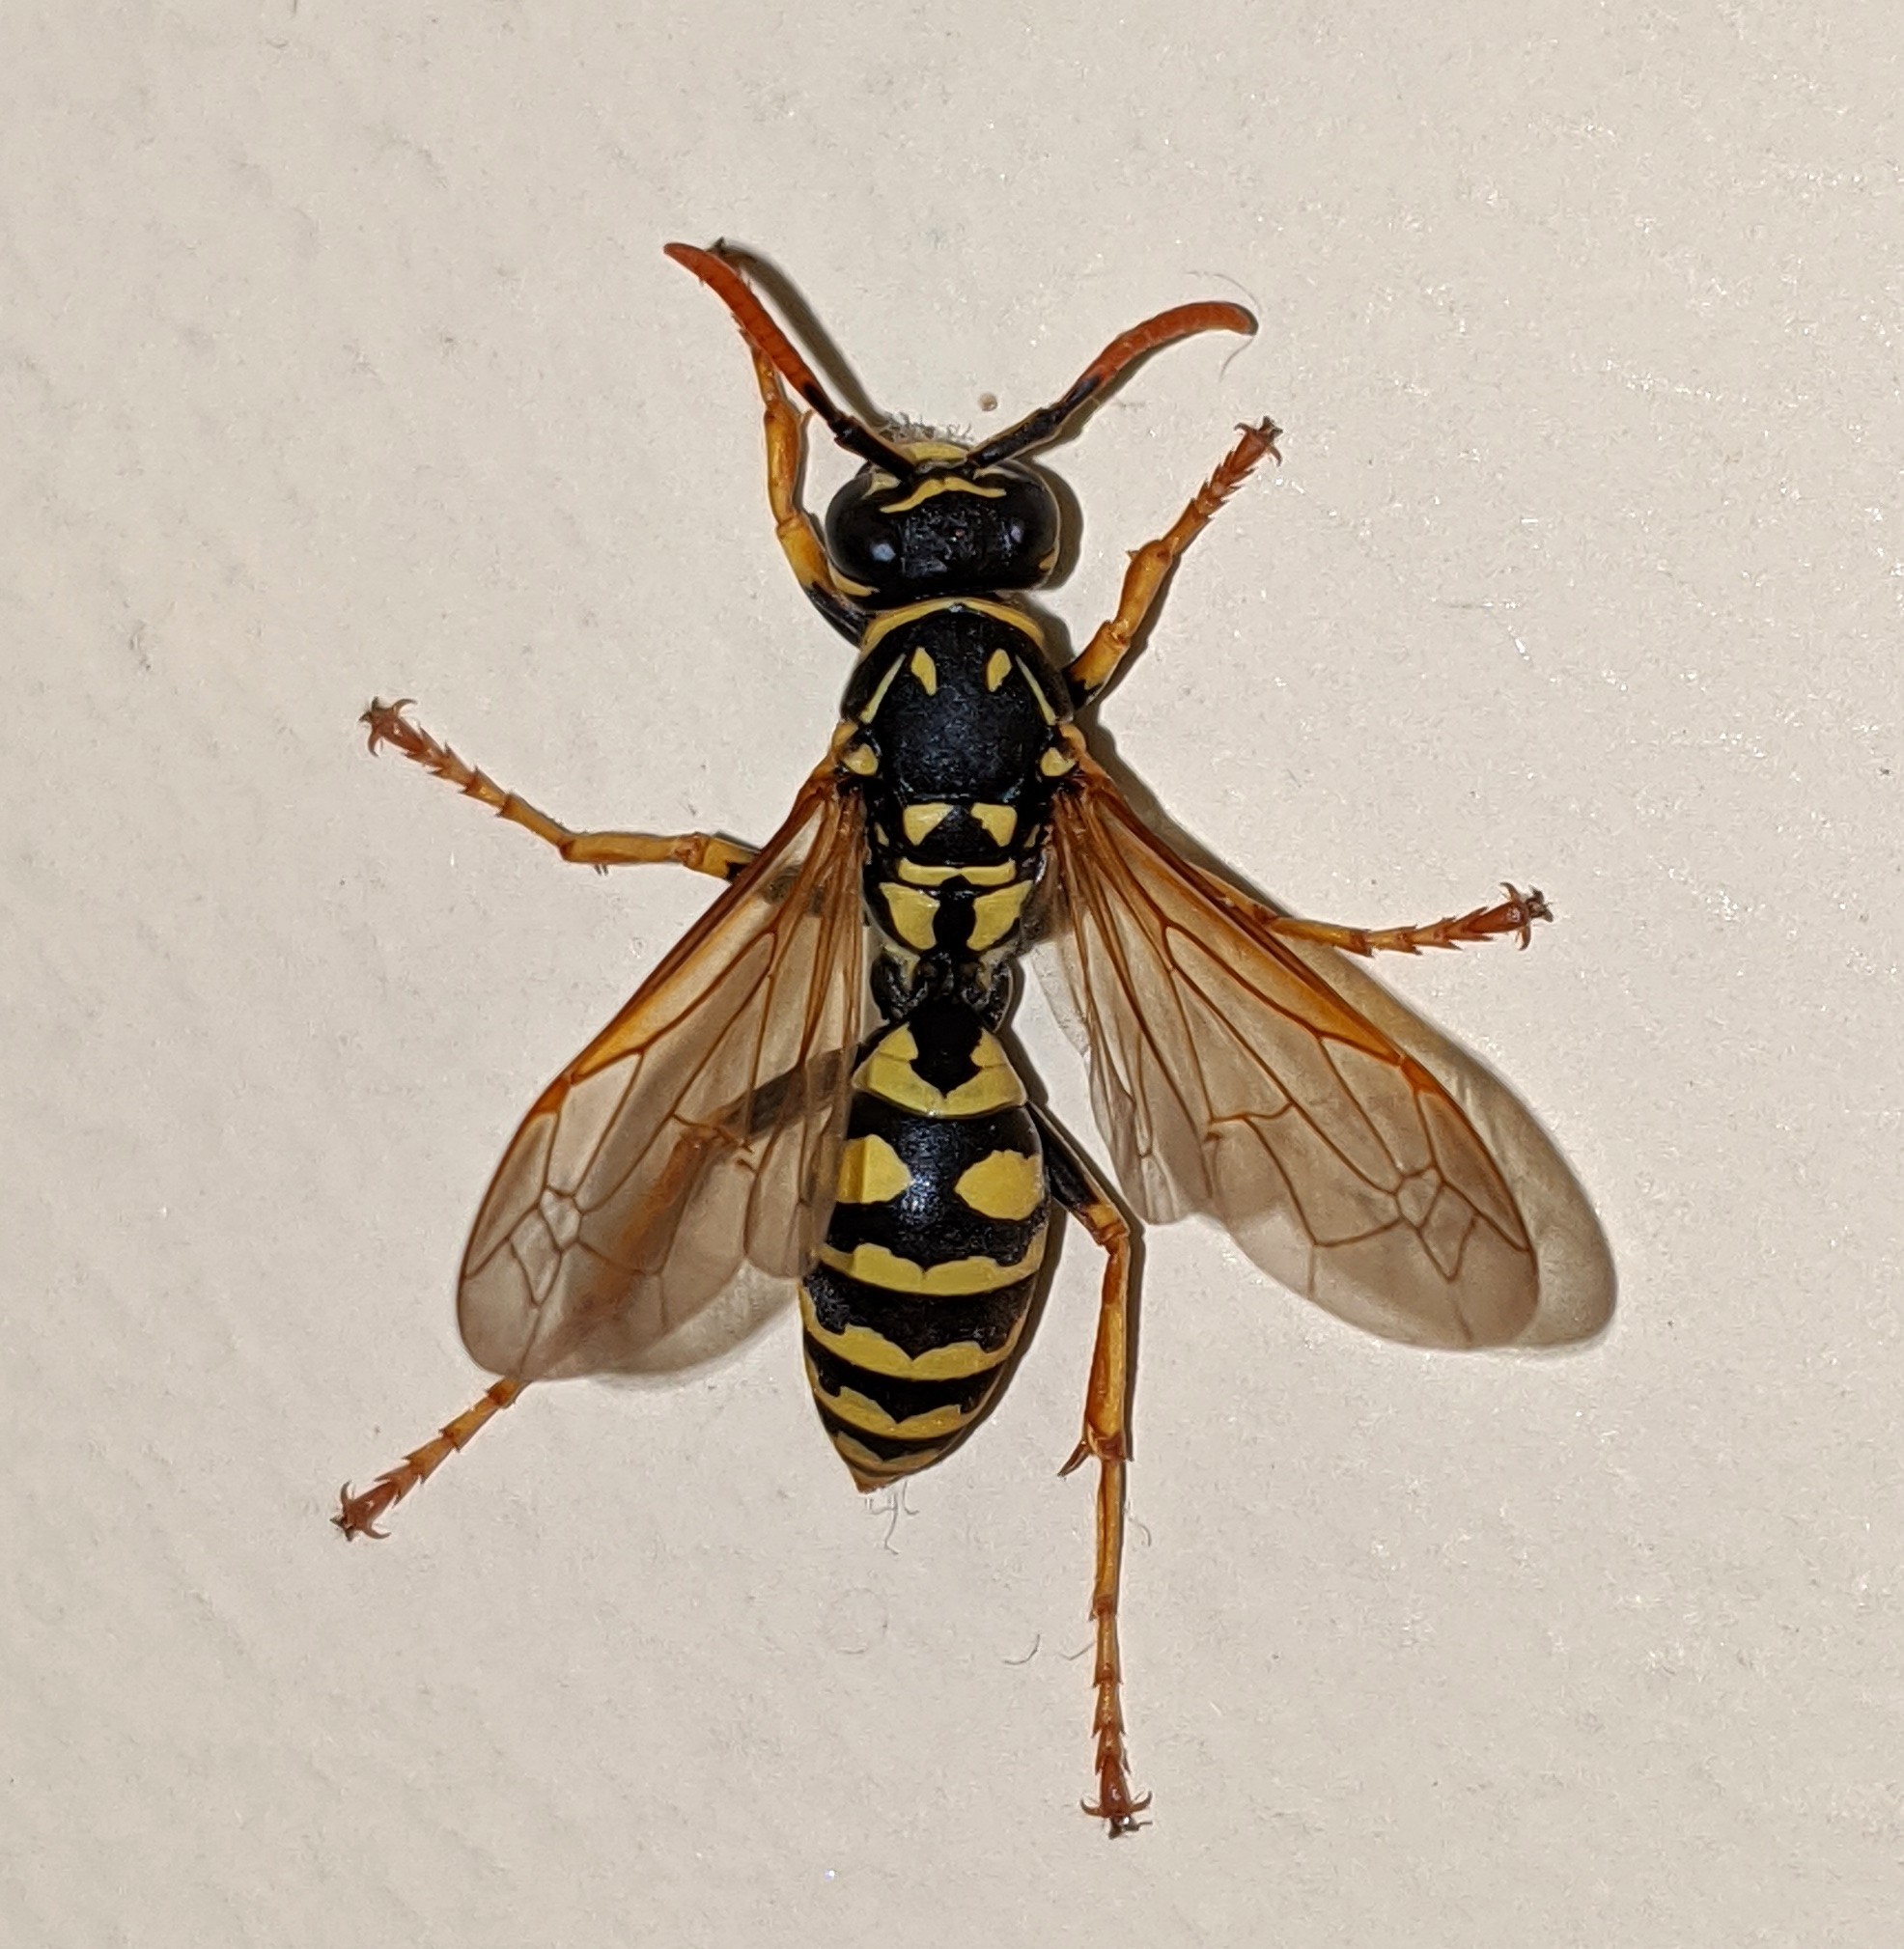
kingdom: Animalia
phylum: Arthropoda
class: Insecta
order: Hymenoptera
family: Eumenidae
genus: Polistes
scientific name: Polistes dominula
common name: Paper wasp
